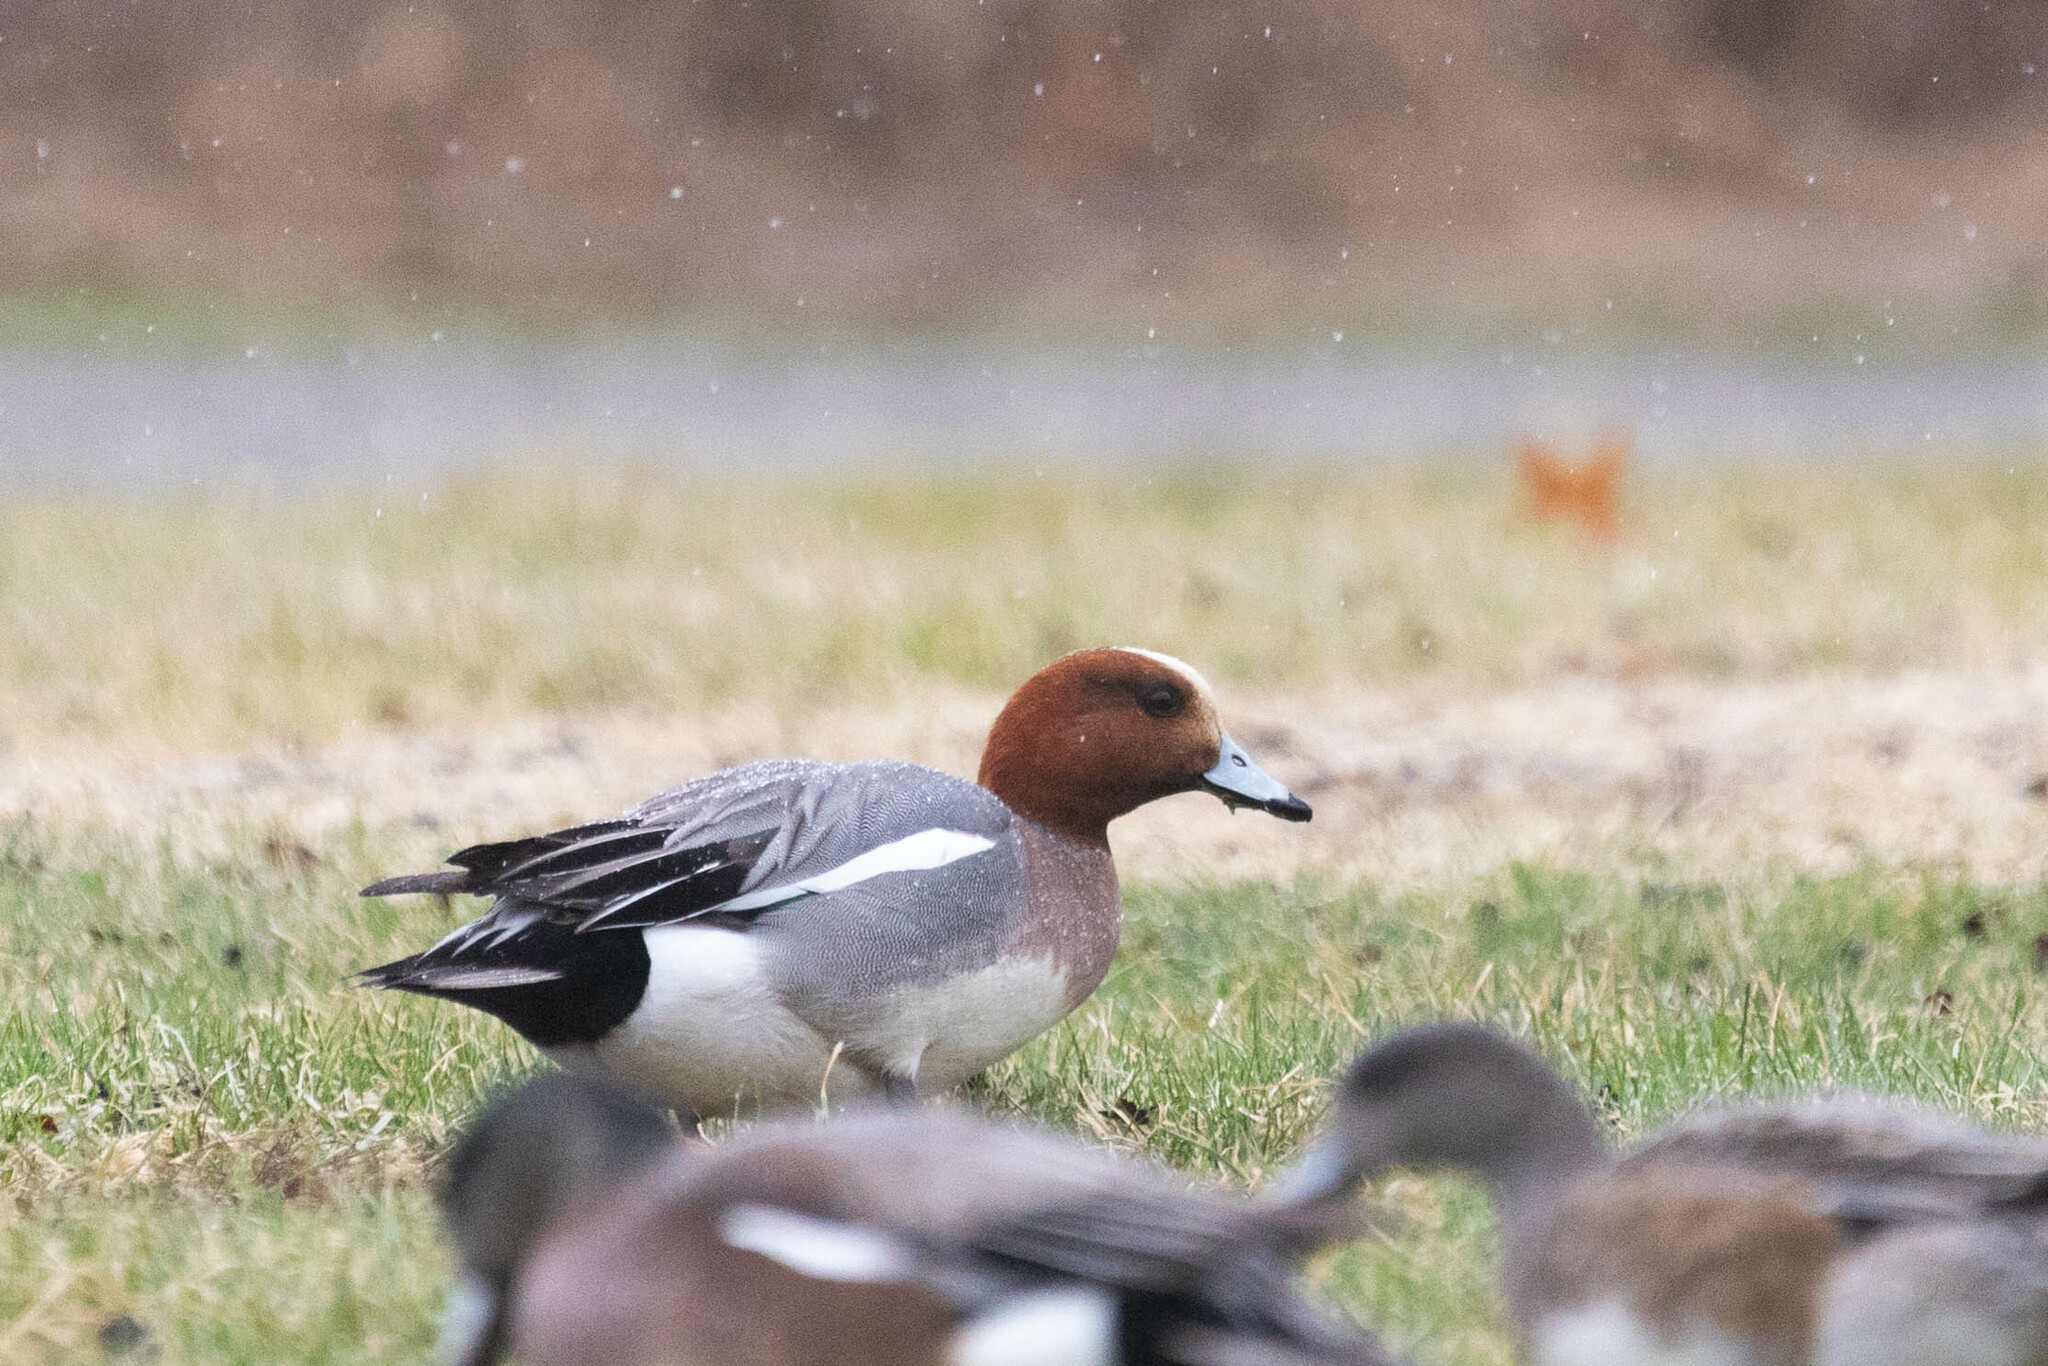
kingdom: Animalia
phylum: Chordata
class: Aves
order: Anseriformes
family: Anatidae
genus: Mareca
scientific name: Mareca penelope
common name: Eurasian wigeon
